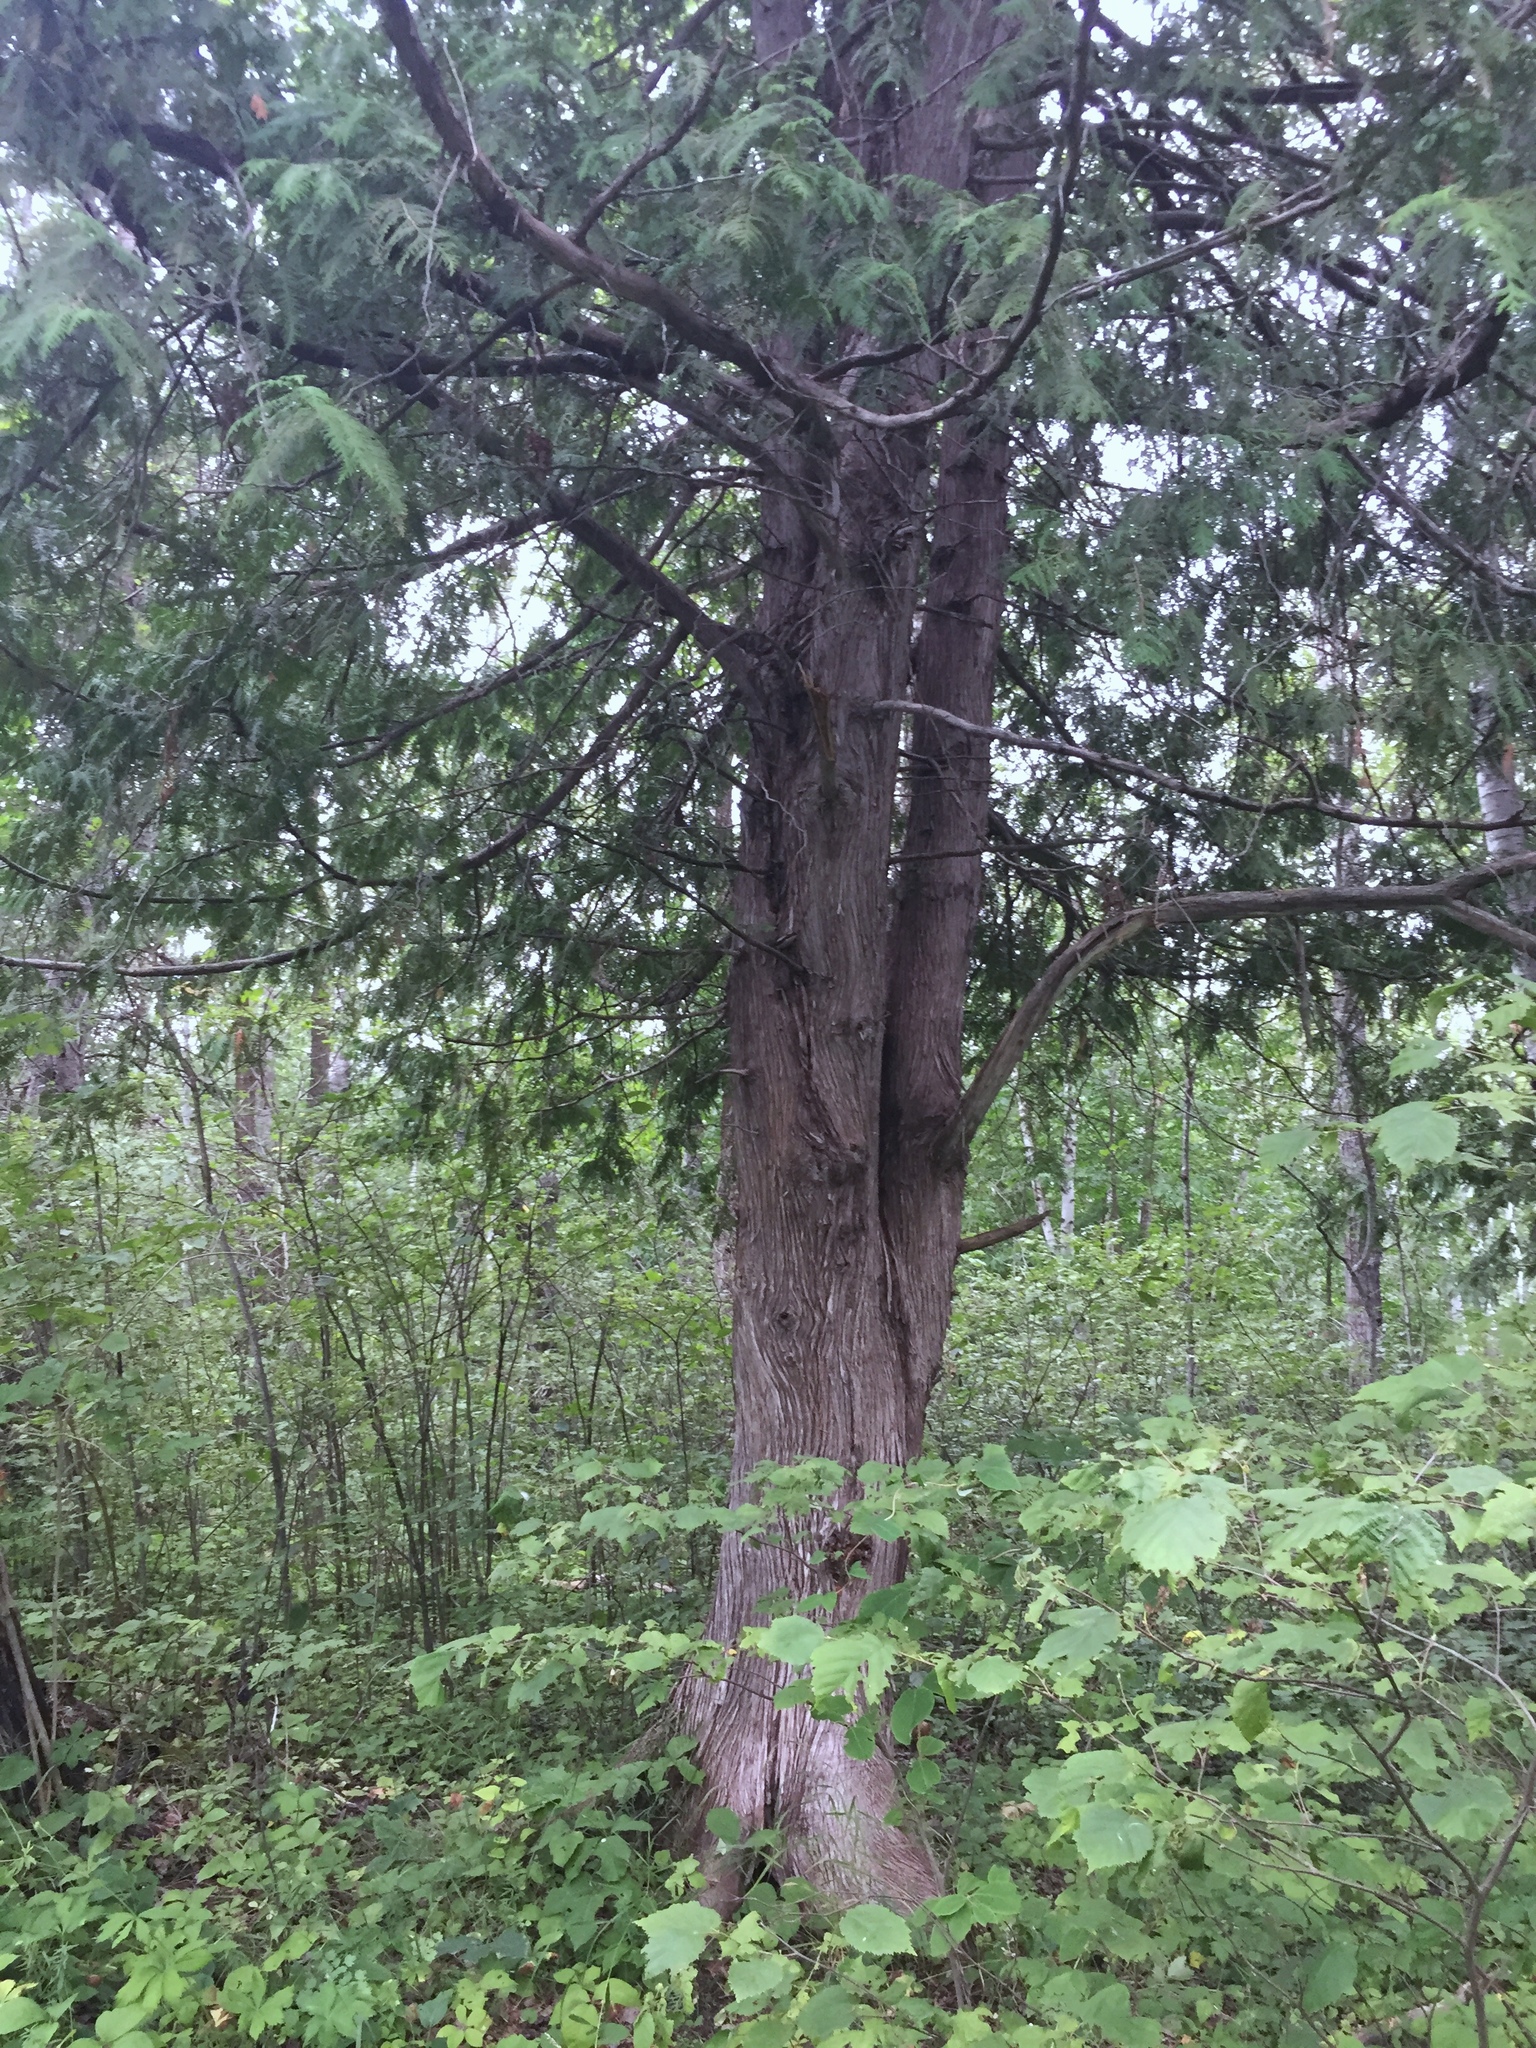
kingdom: Plantae
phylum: Tracheophyta
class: Pinopsida
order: Pinales
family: Cupressaceae
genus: Thuja
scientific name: Thuja occidentalis
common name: Northern white-cedar
